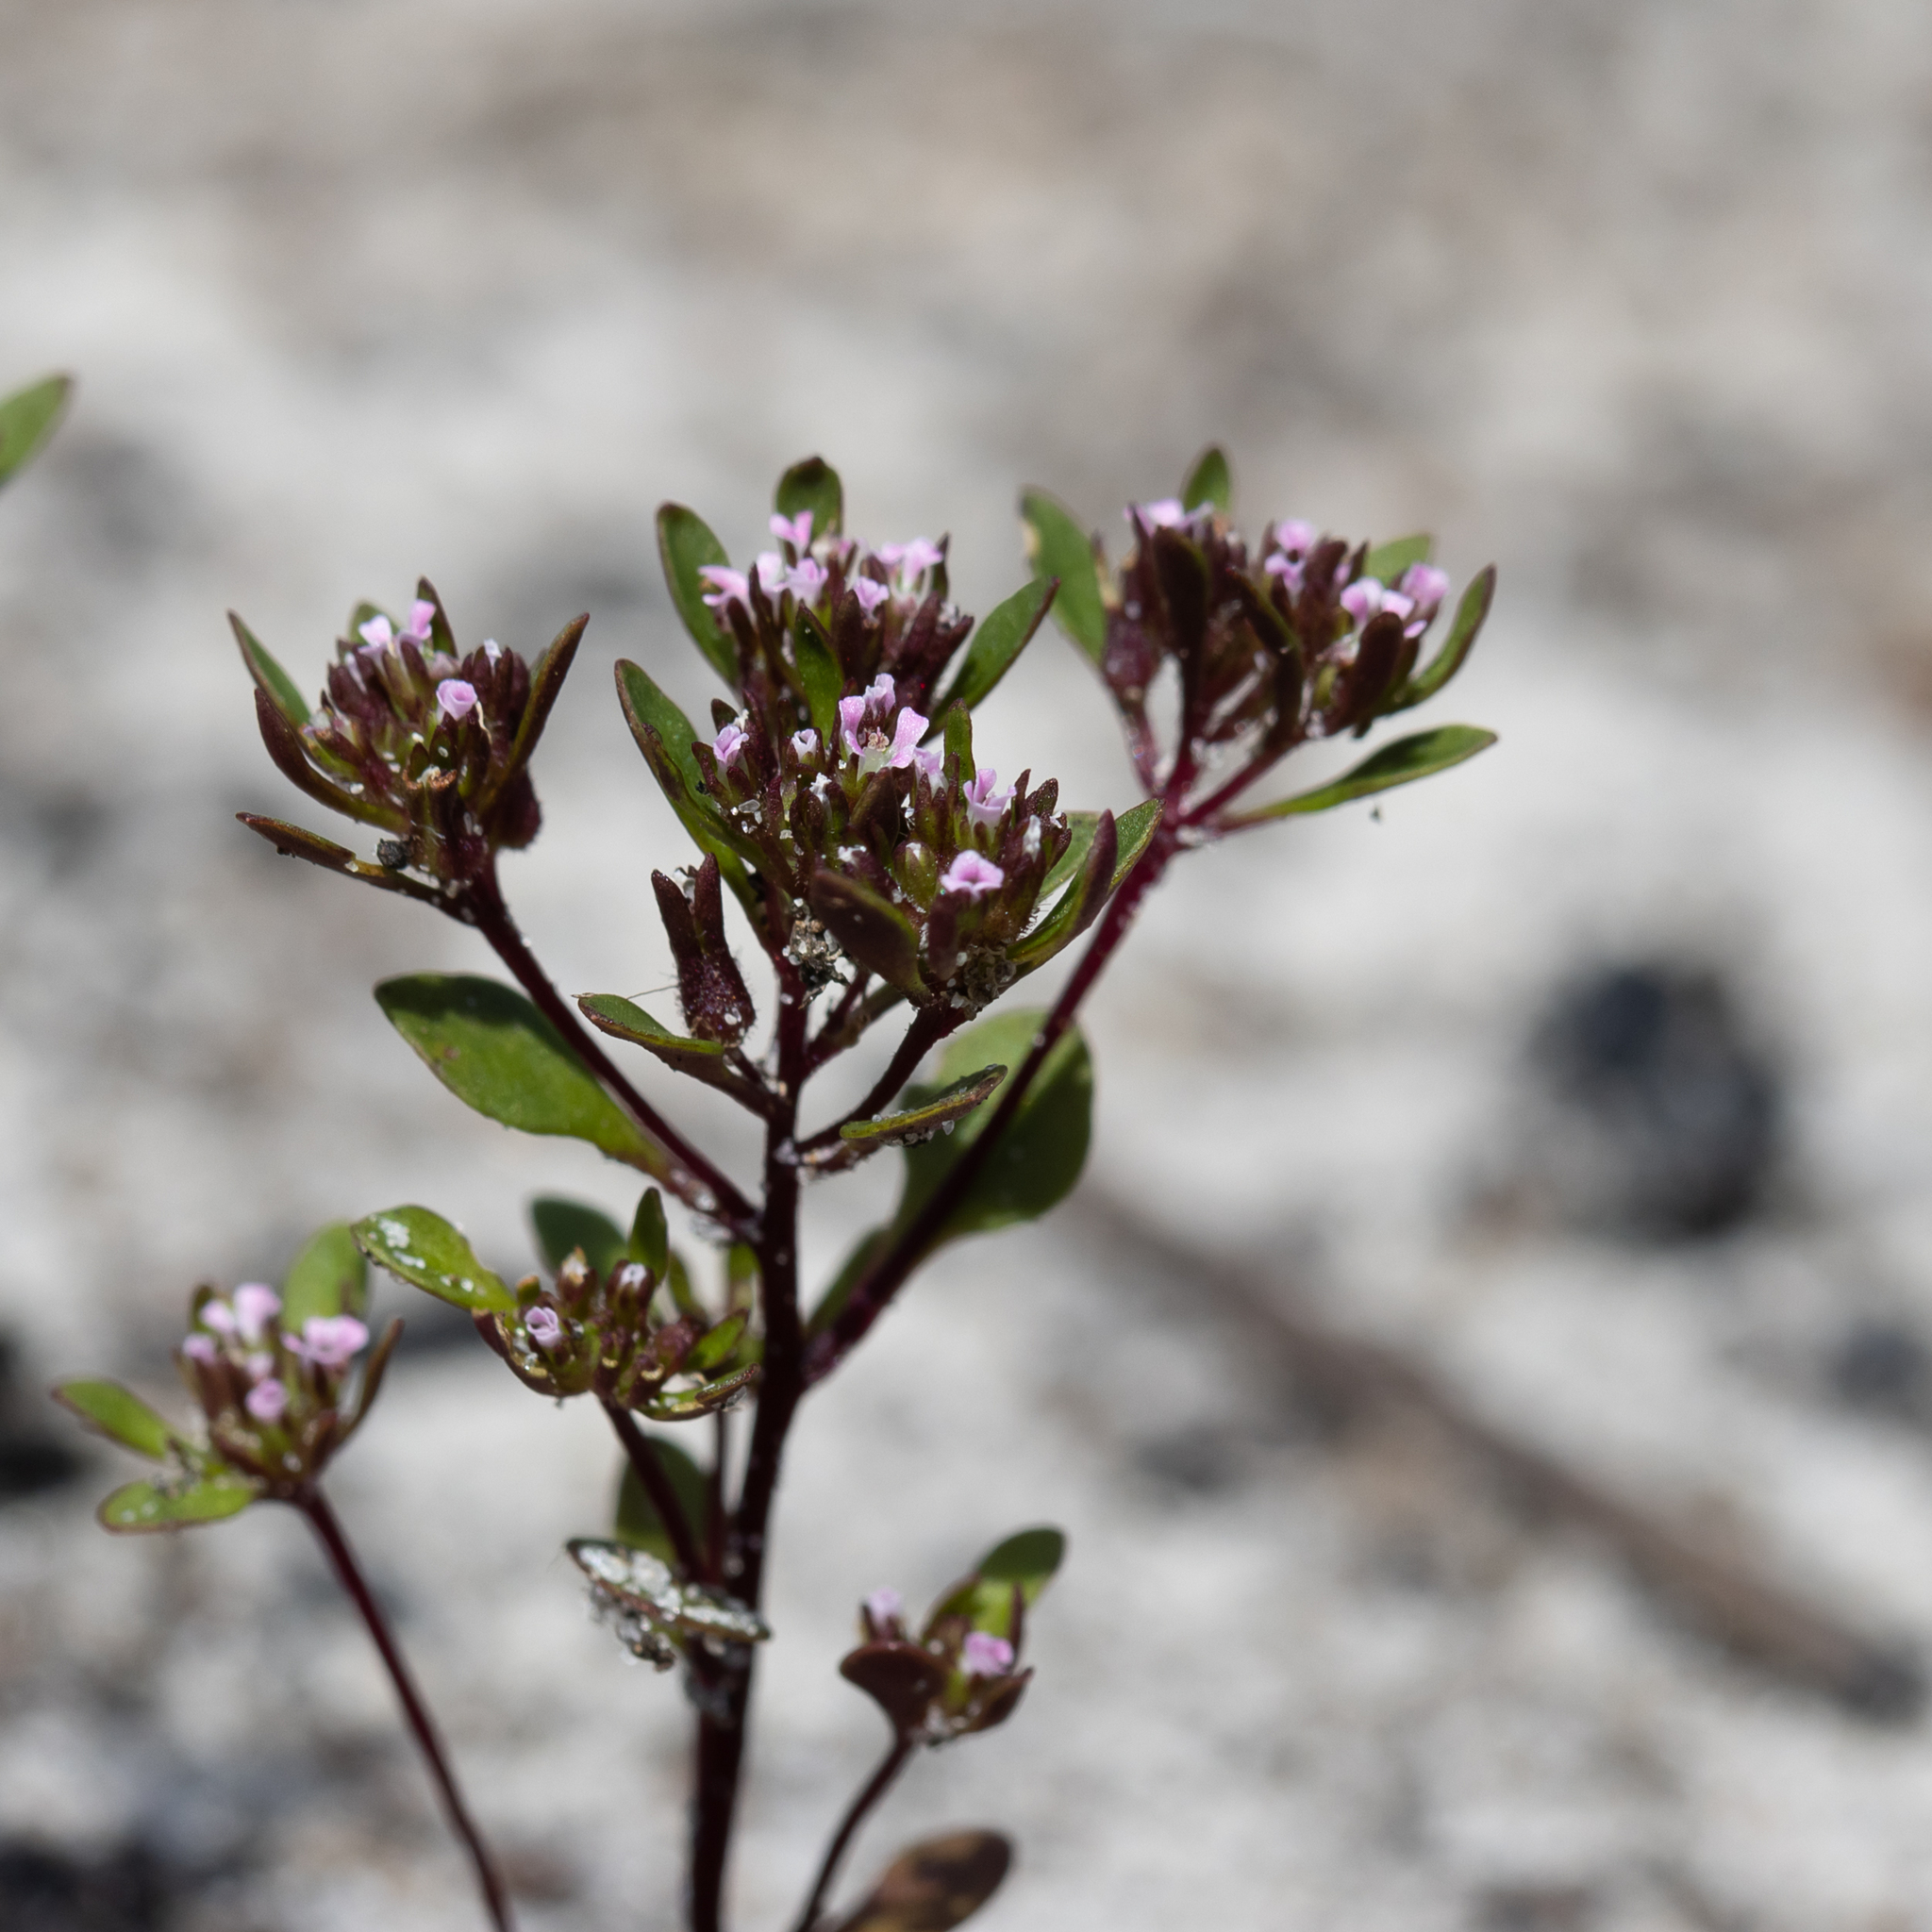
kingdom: Plantae
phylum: Tracheophyta
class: Magnoliopsida
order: Asterales
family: Stylidiaceae
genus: Levenhookia
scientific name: Levenhookia pusilla
